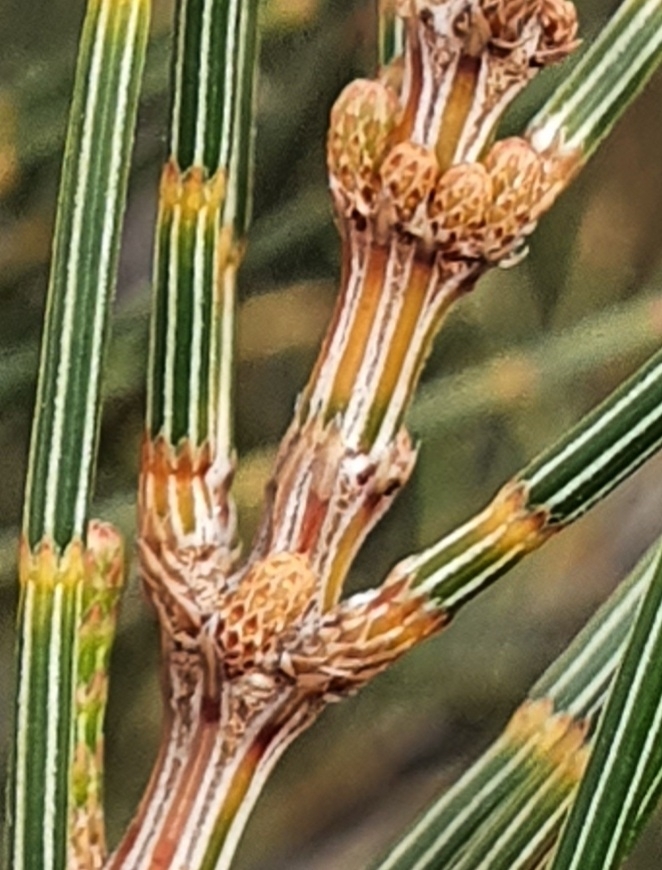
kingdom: Plantae
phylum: Tracheophyta
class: Magnoliopsida
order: Fagales
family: Casuarinaceae
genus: Allocasuarina
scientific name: Allocasuarina distyla
